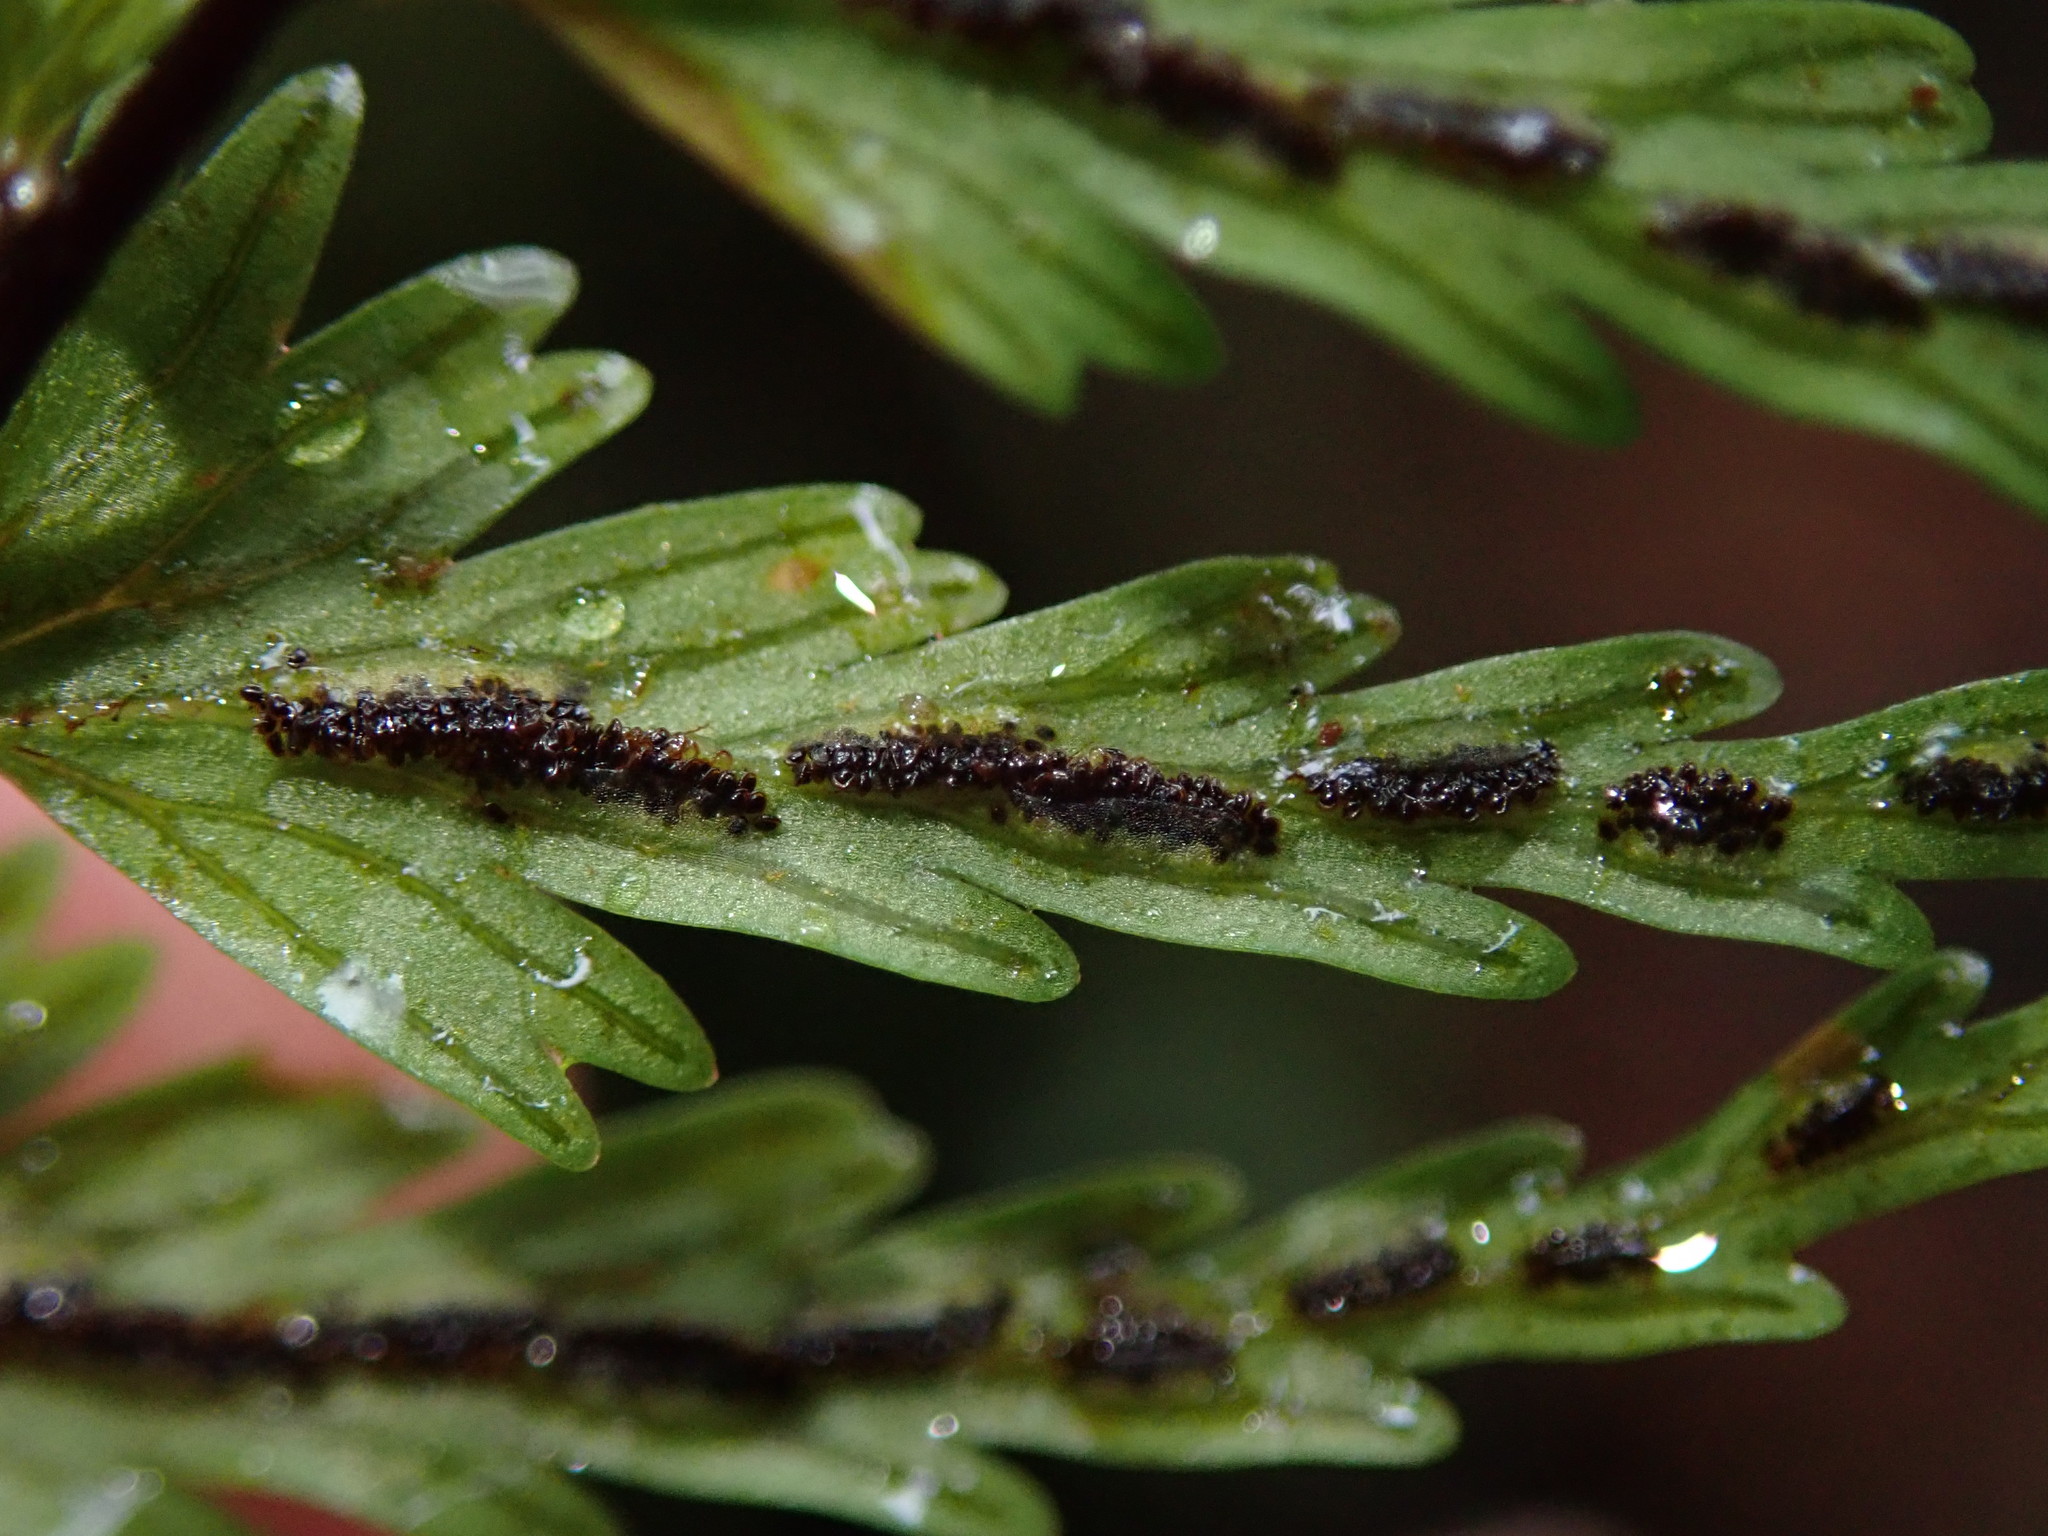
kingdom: Plantae
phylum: Tracheophyta
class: Polypodiopsida
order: Polypodiales
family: Aspleniaceae
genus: Asplenium
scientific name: Asplenium dissectum
